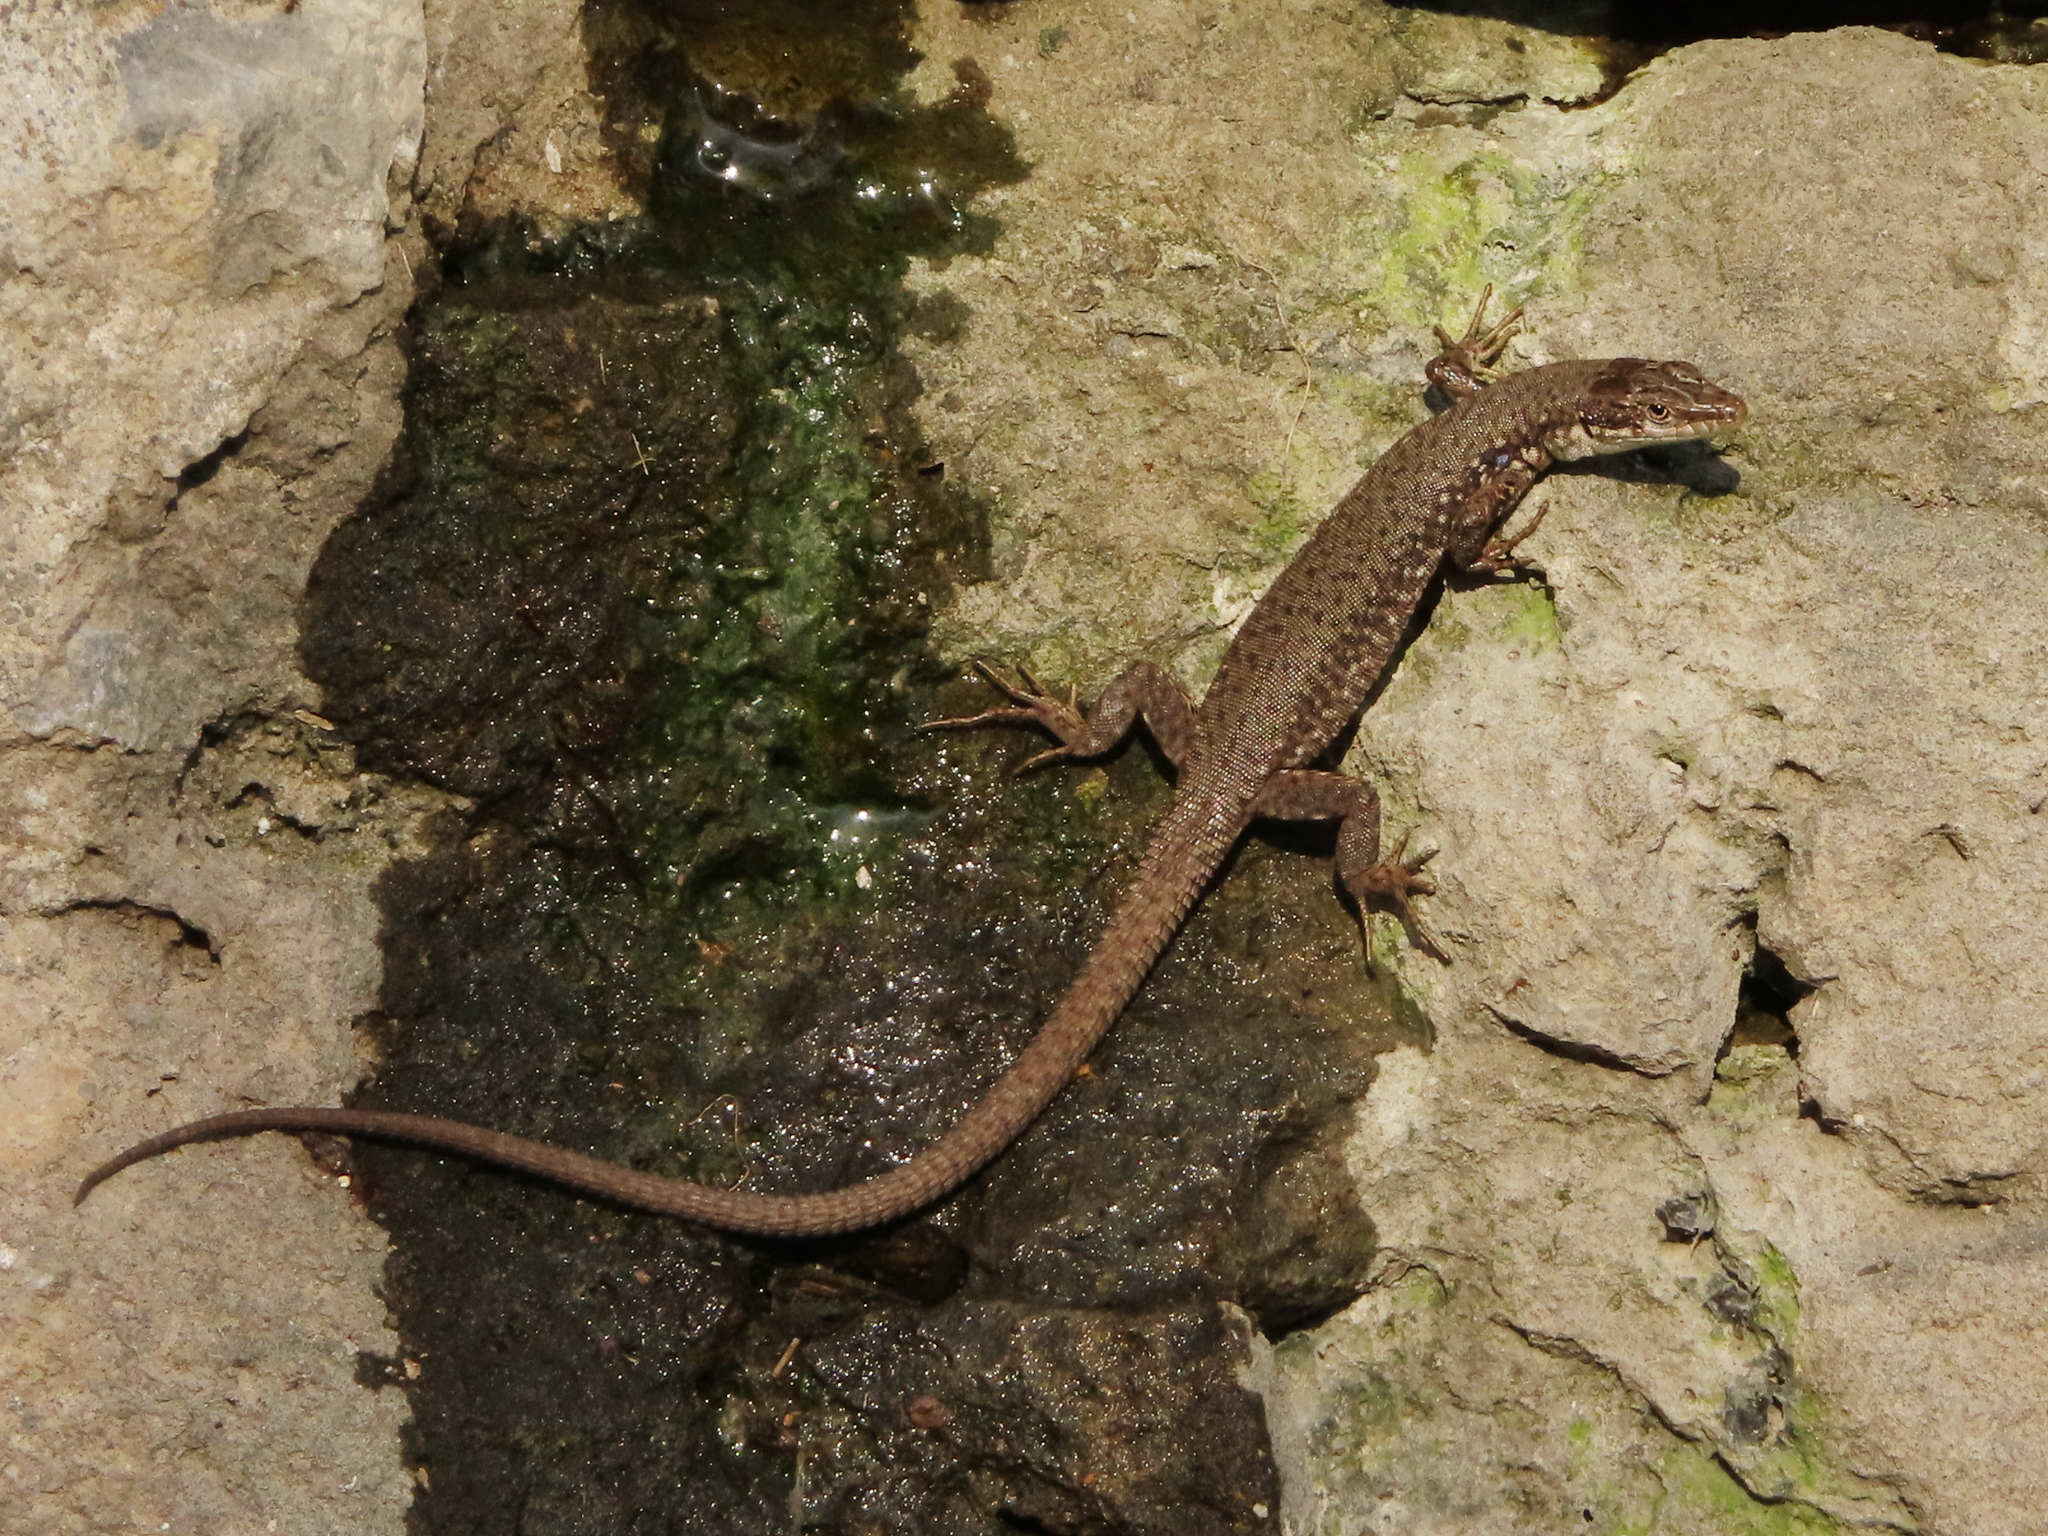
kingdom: Animalia
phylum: Chordata
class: Squamata
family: Lacertidae
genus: Darevskia
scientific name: Darevskia
